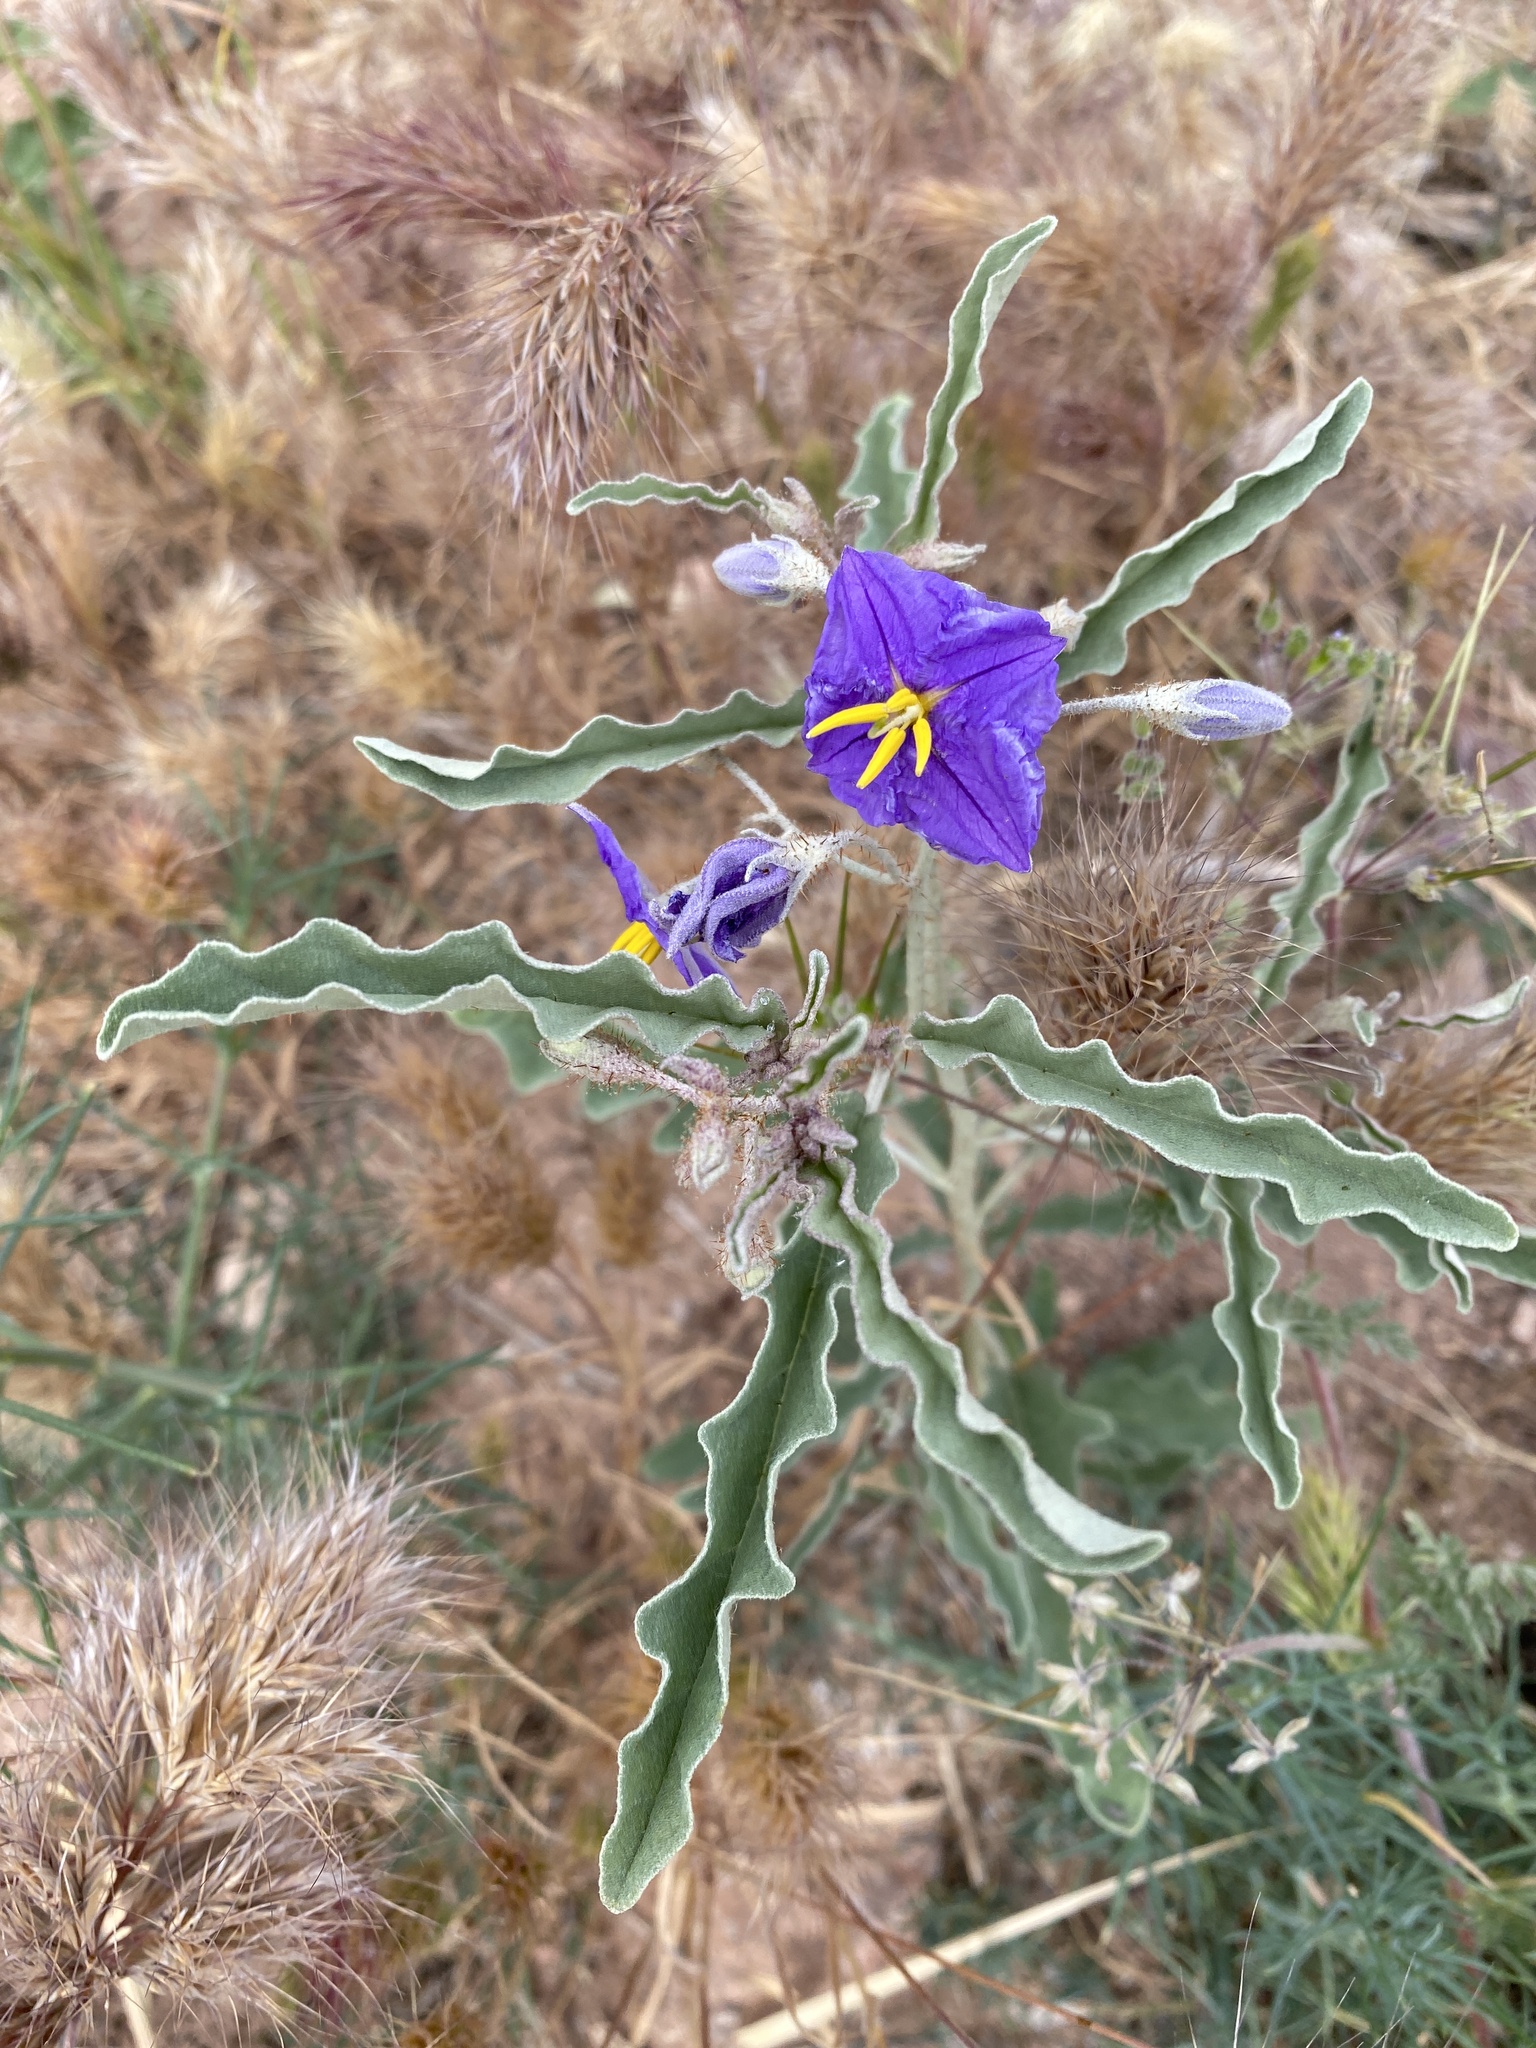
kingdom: Plantae
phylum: Tracheophyta
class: Magnoliopsida
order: Solanales
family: Solanaceae
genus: Solanum
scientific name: Solanum elaeagnifolium
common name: Silverleaf nightshade
